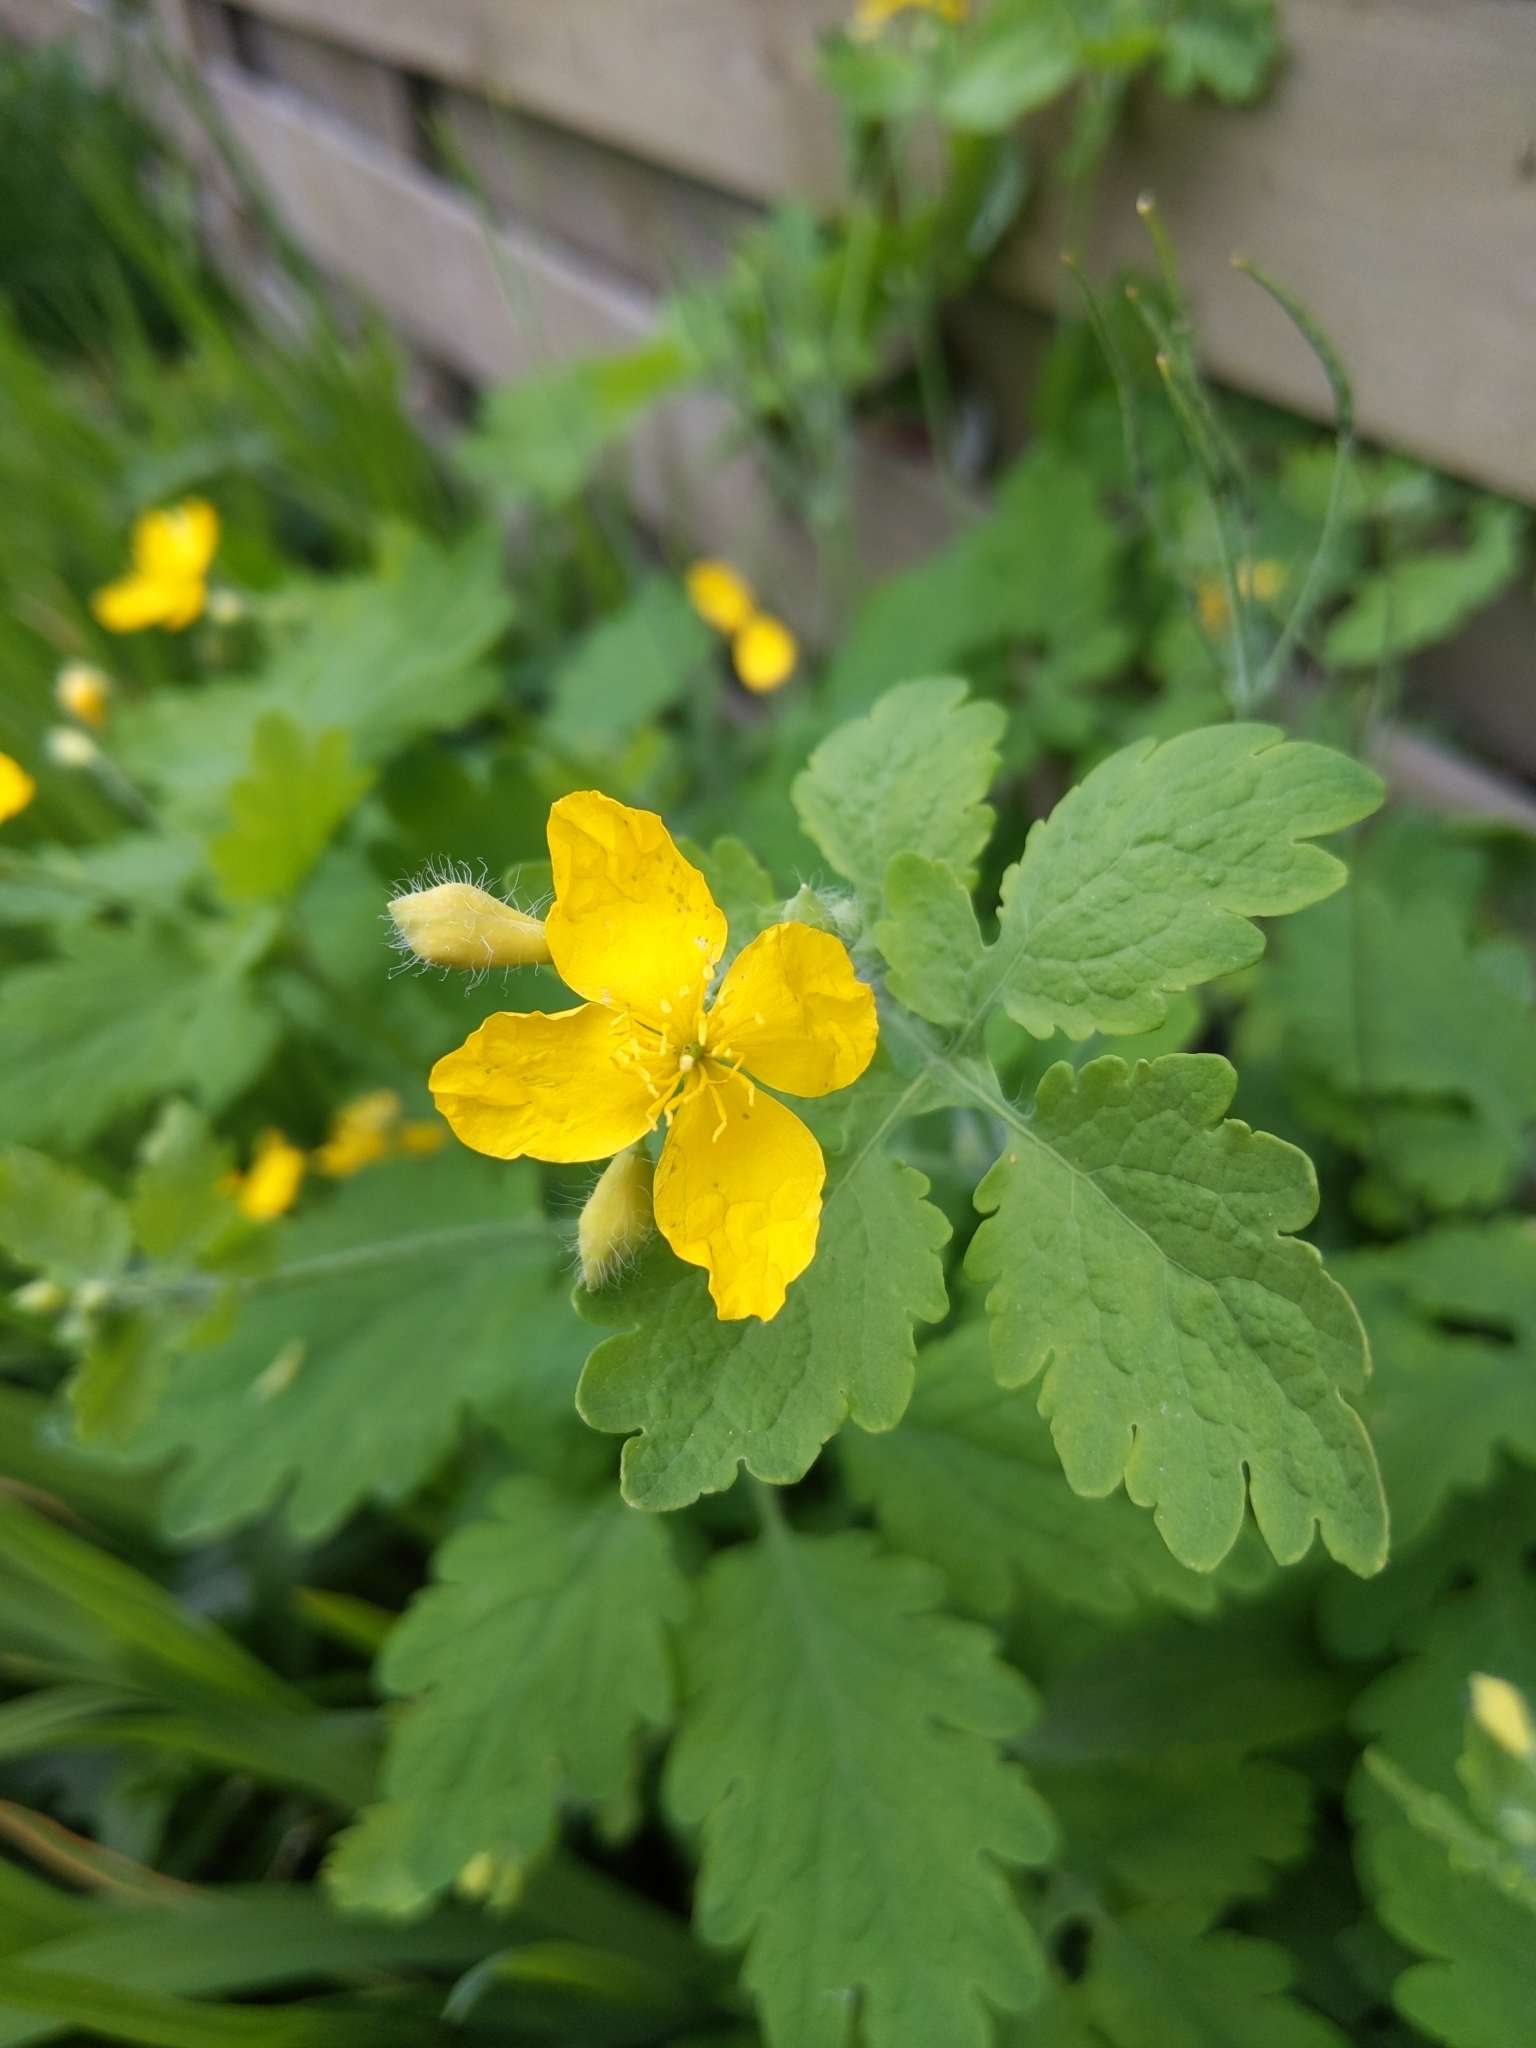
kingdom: Plantae
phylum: Tracheophyta
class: Magnoliopsida
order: Ranunculales
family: Papaveraceae
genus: Chelidonium
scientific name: Chelidonium majus
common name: Greater celandine
